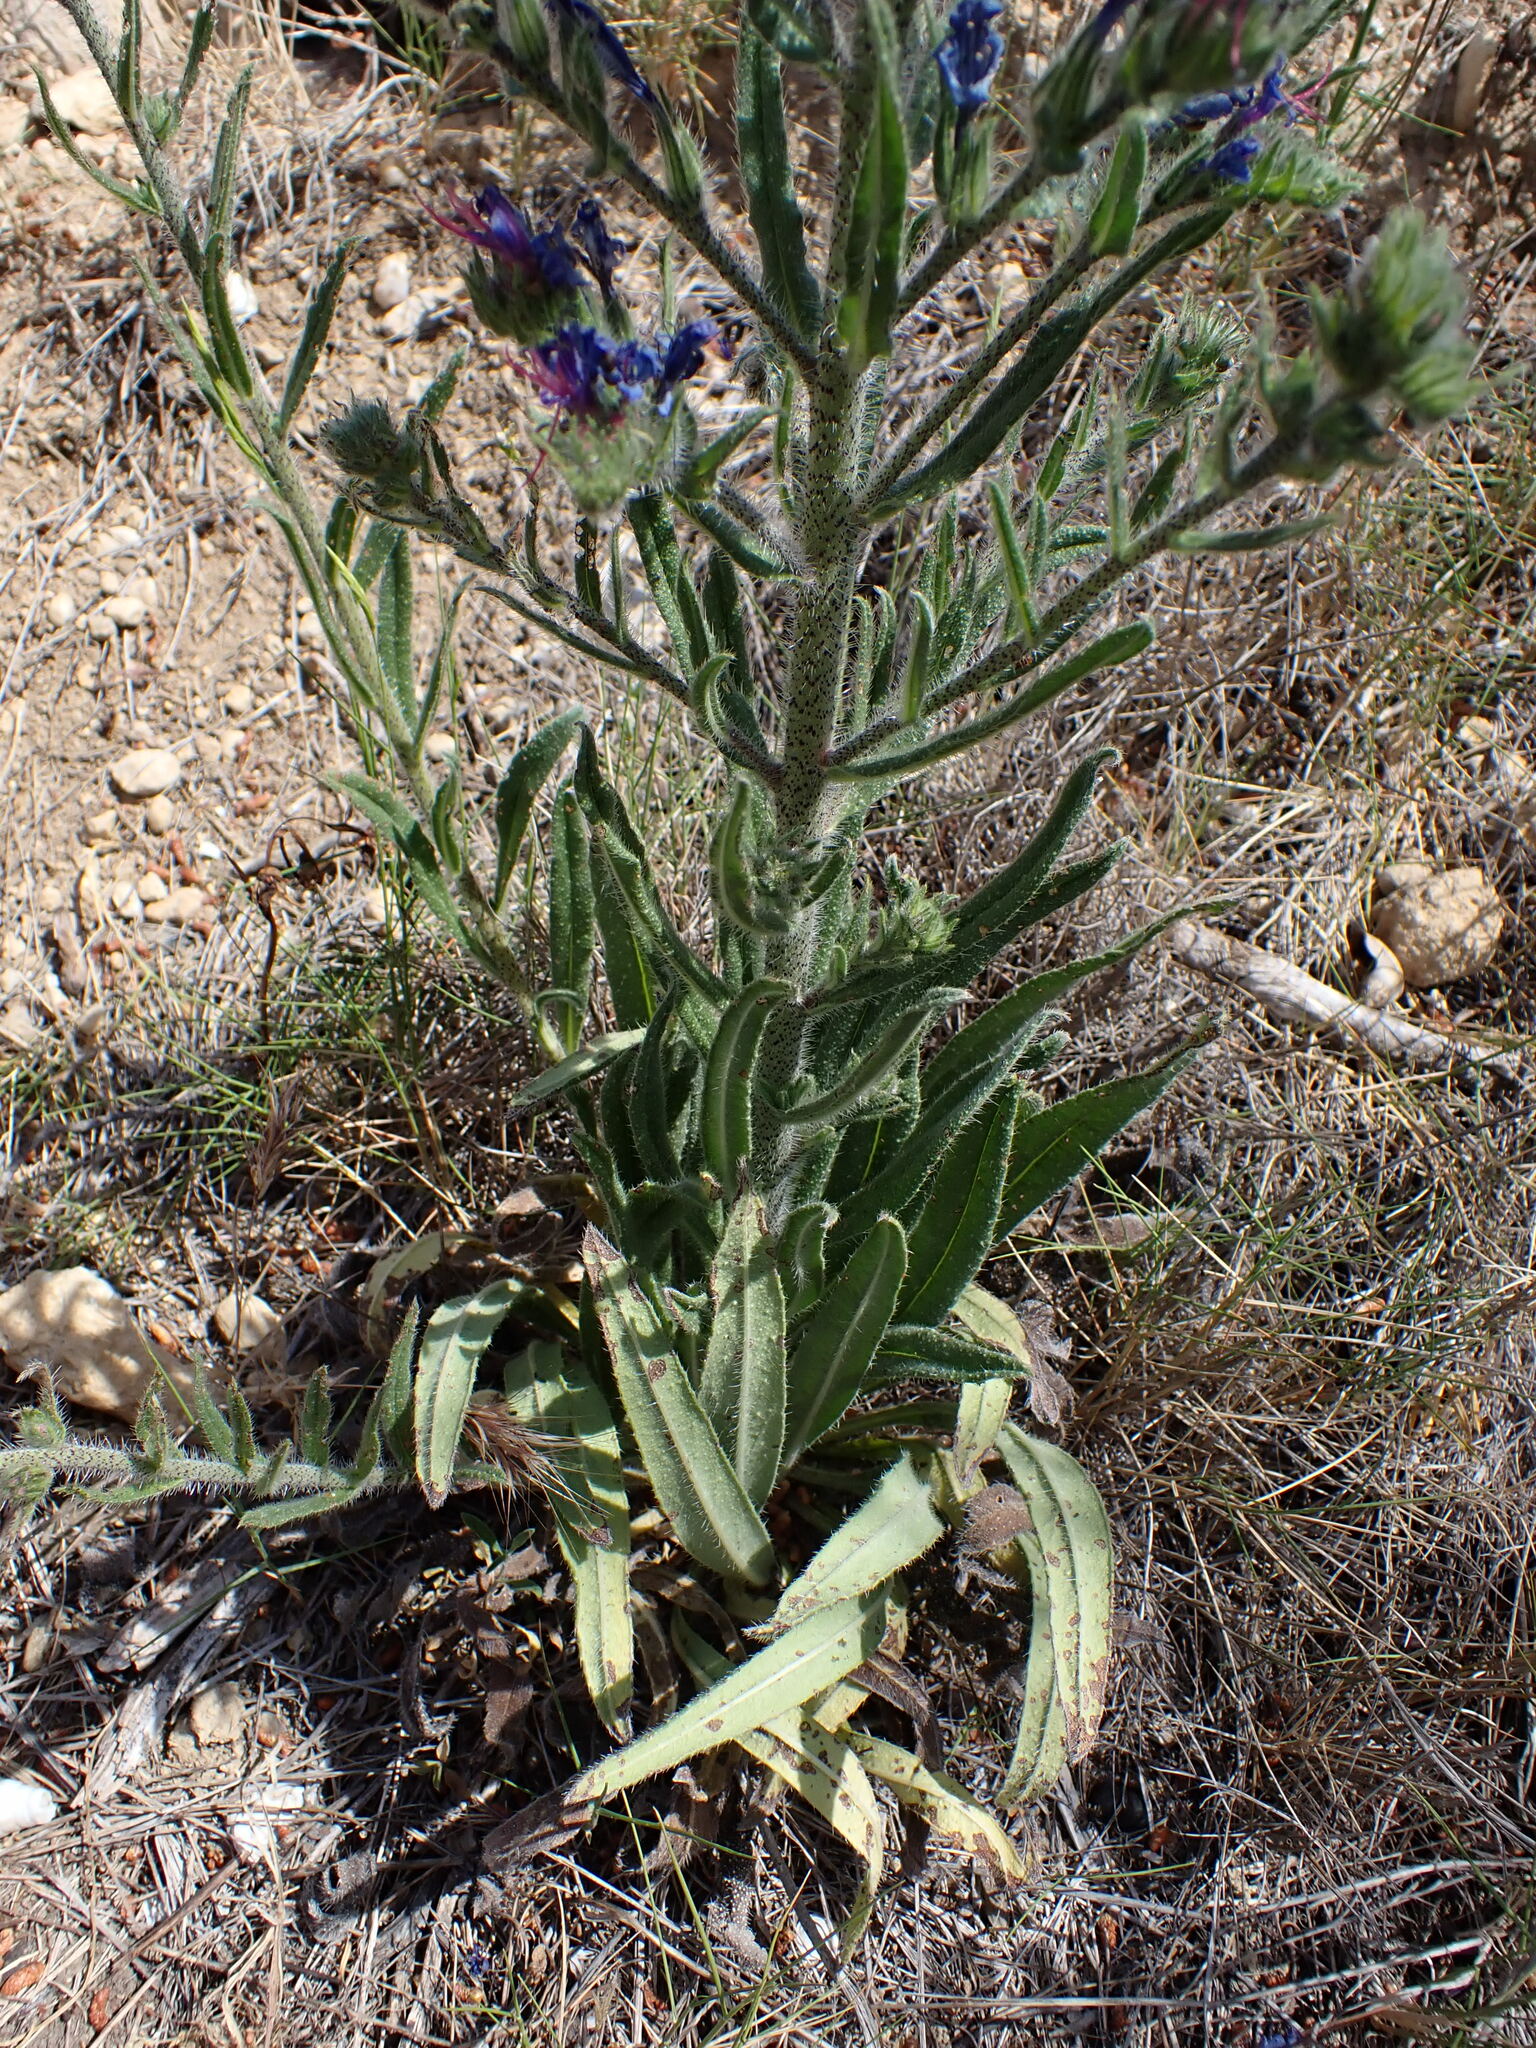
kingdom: Plantae
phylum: Tracheophyta
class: Magnoliopsida
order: Boraginales
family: Boraginaceae
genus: Echium
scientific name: Echium vulgare
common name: Common viper's bugloss
